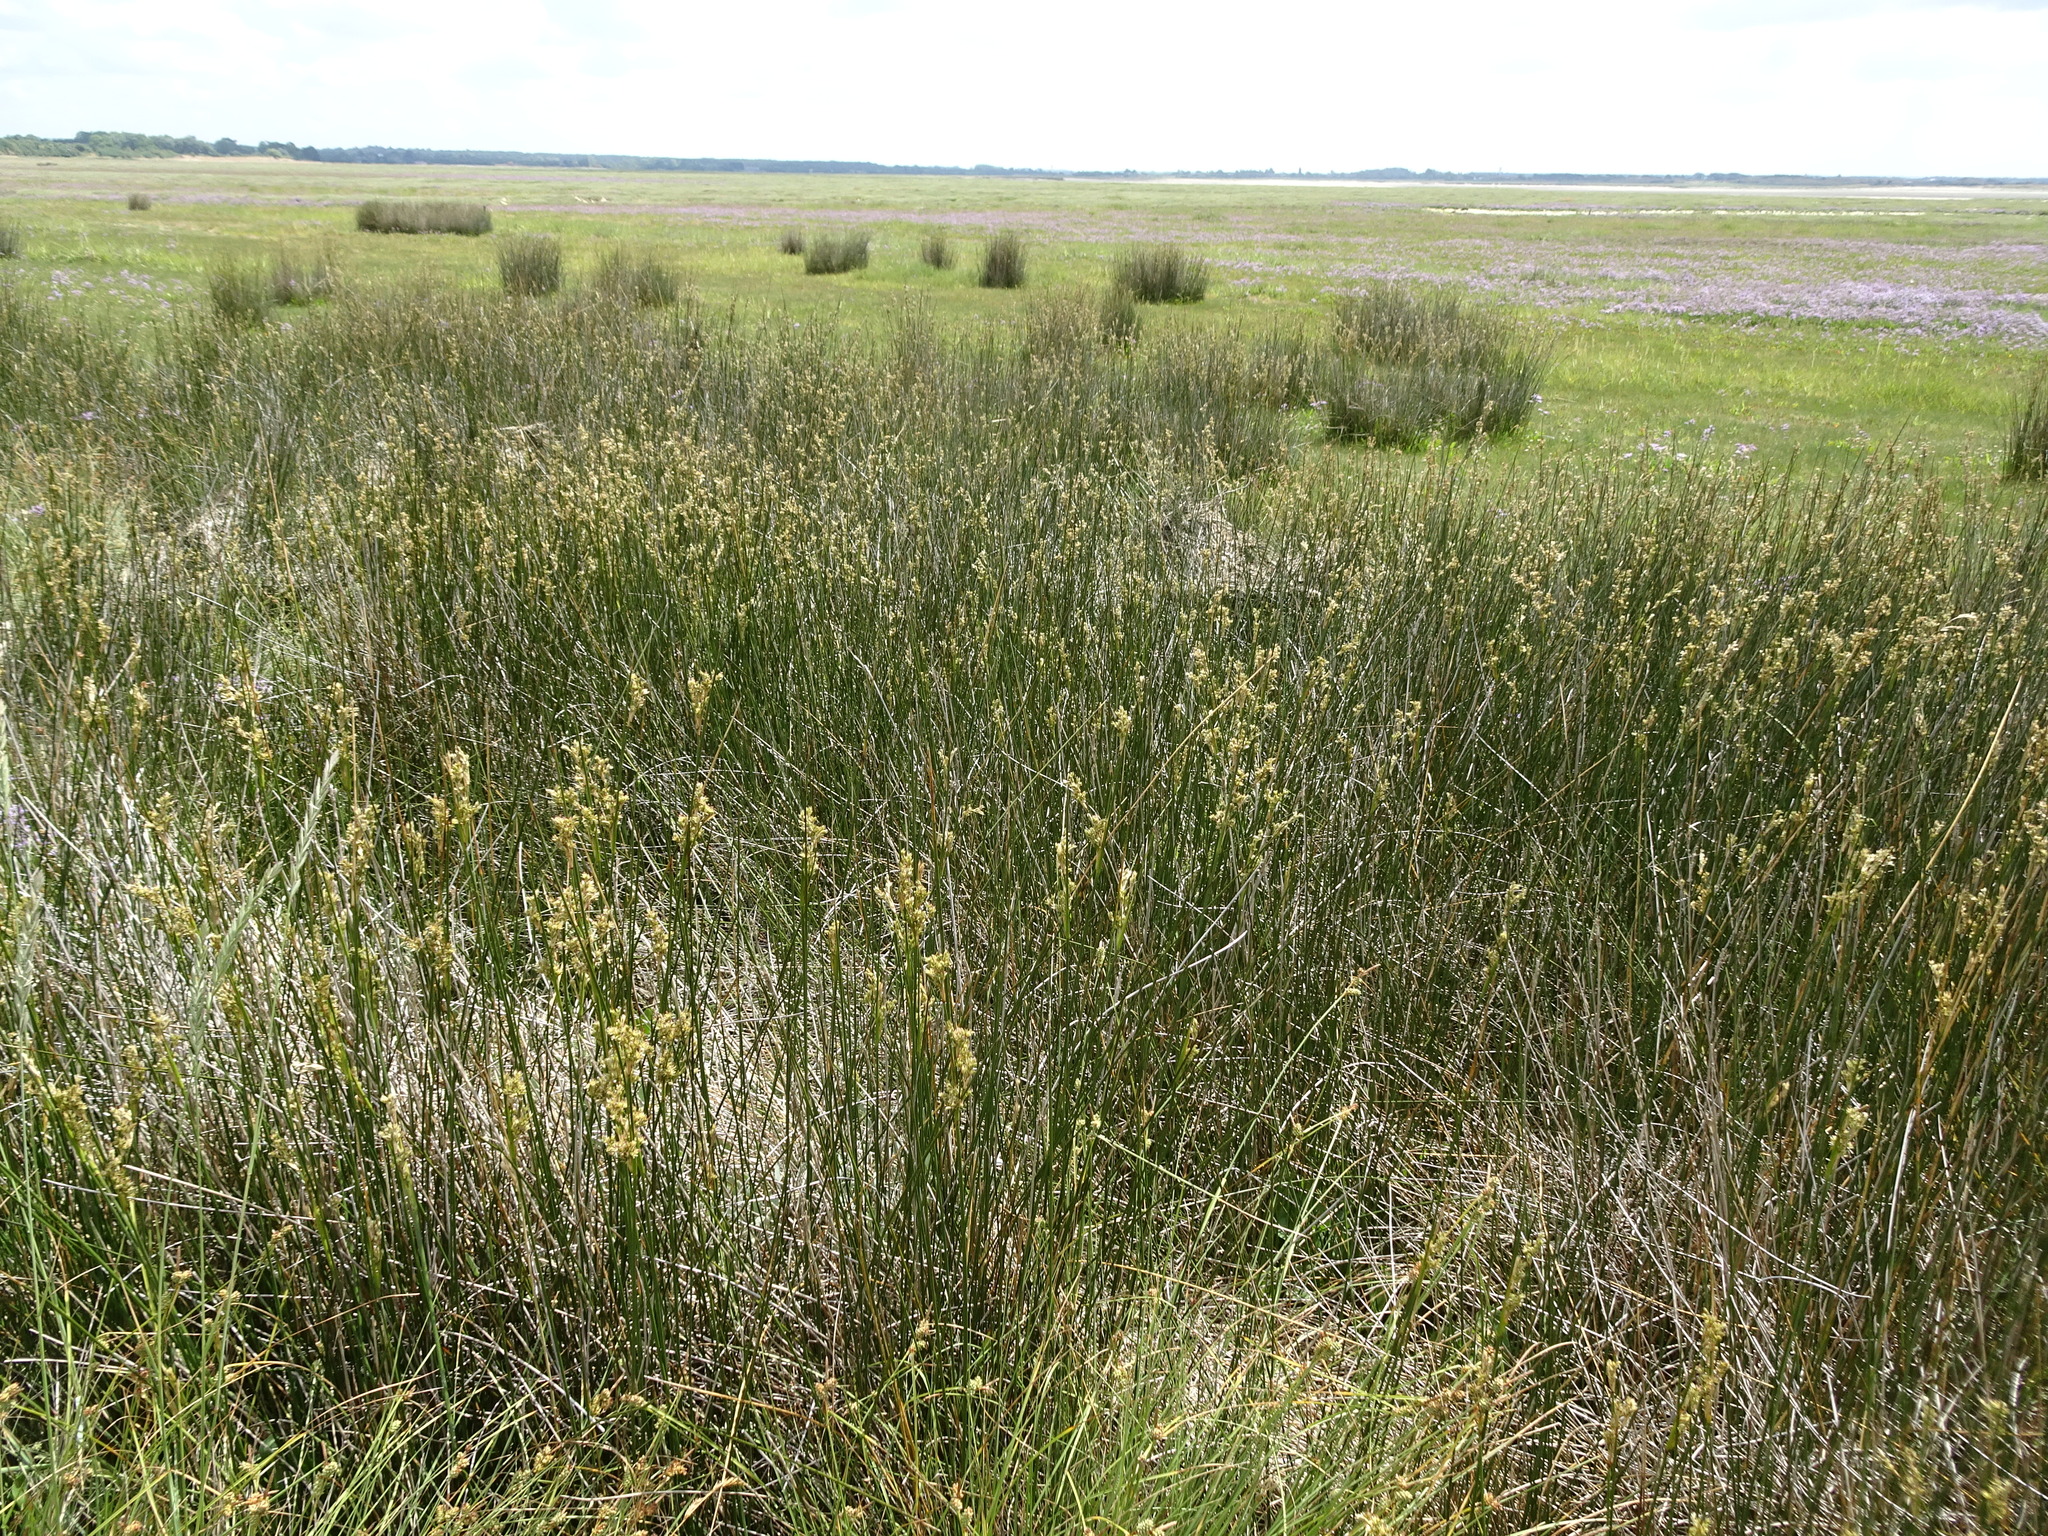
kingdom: Plantae
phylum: Tracheophyta
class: Liliopsida
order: Poales
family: Juncaceae
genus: Juncus
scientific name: Juncus maritimus
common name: Sea rush
